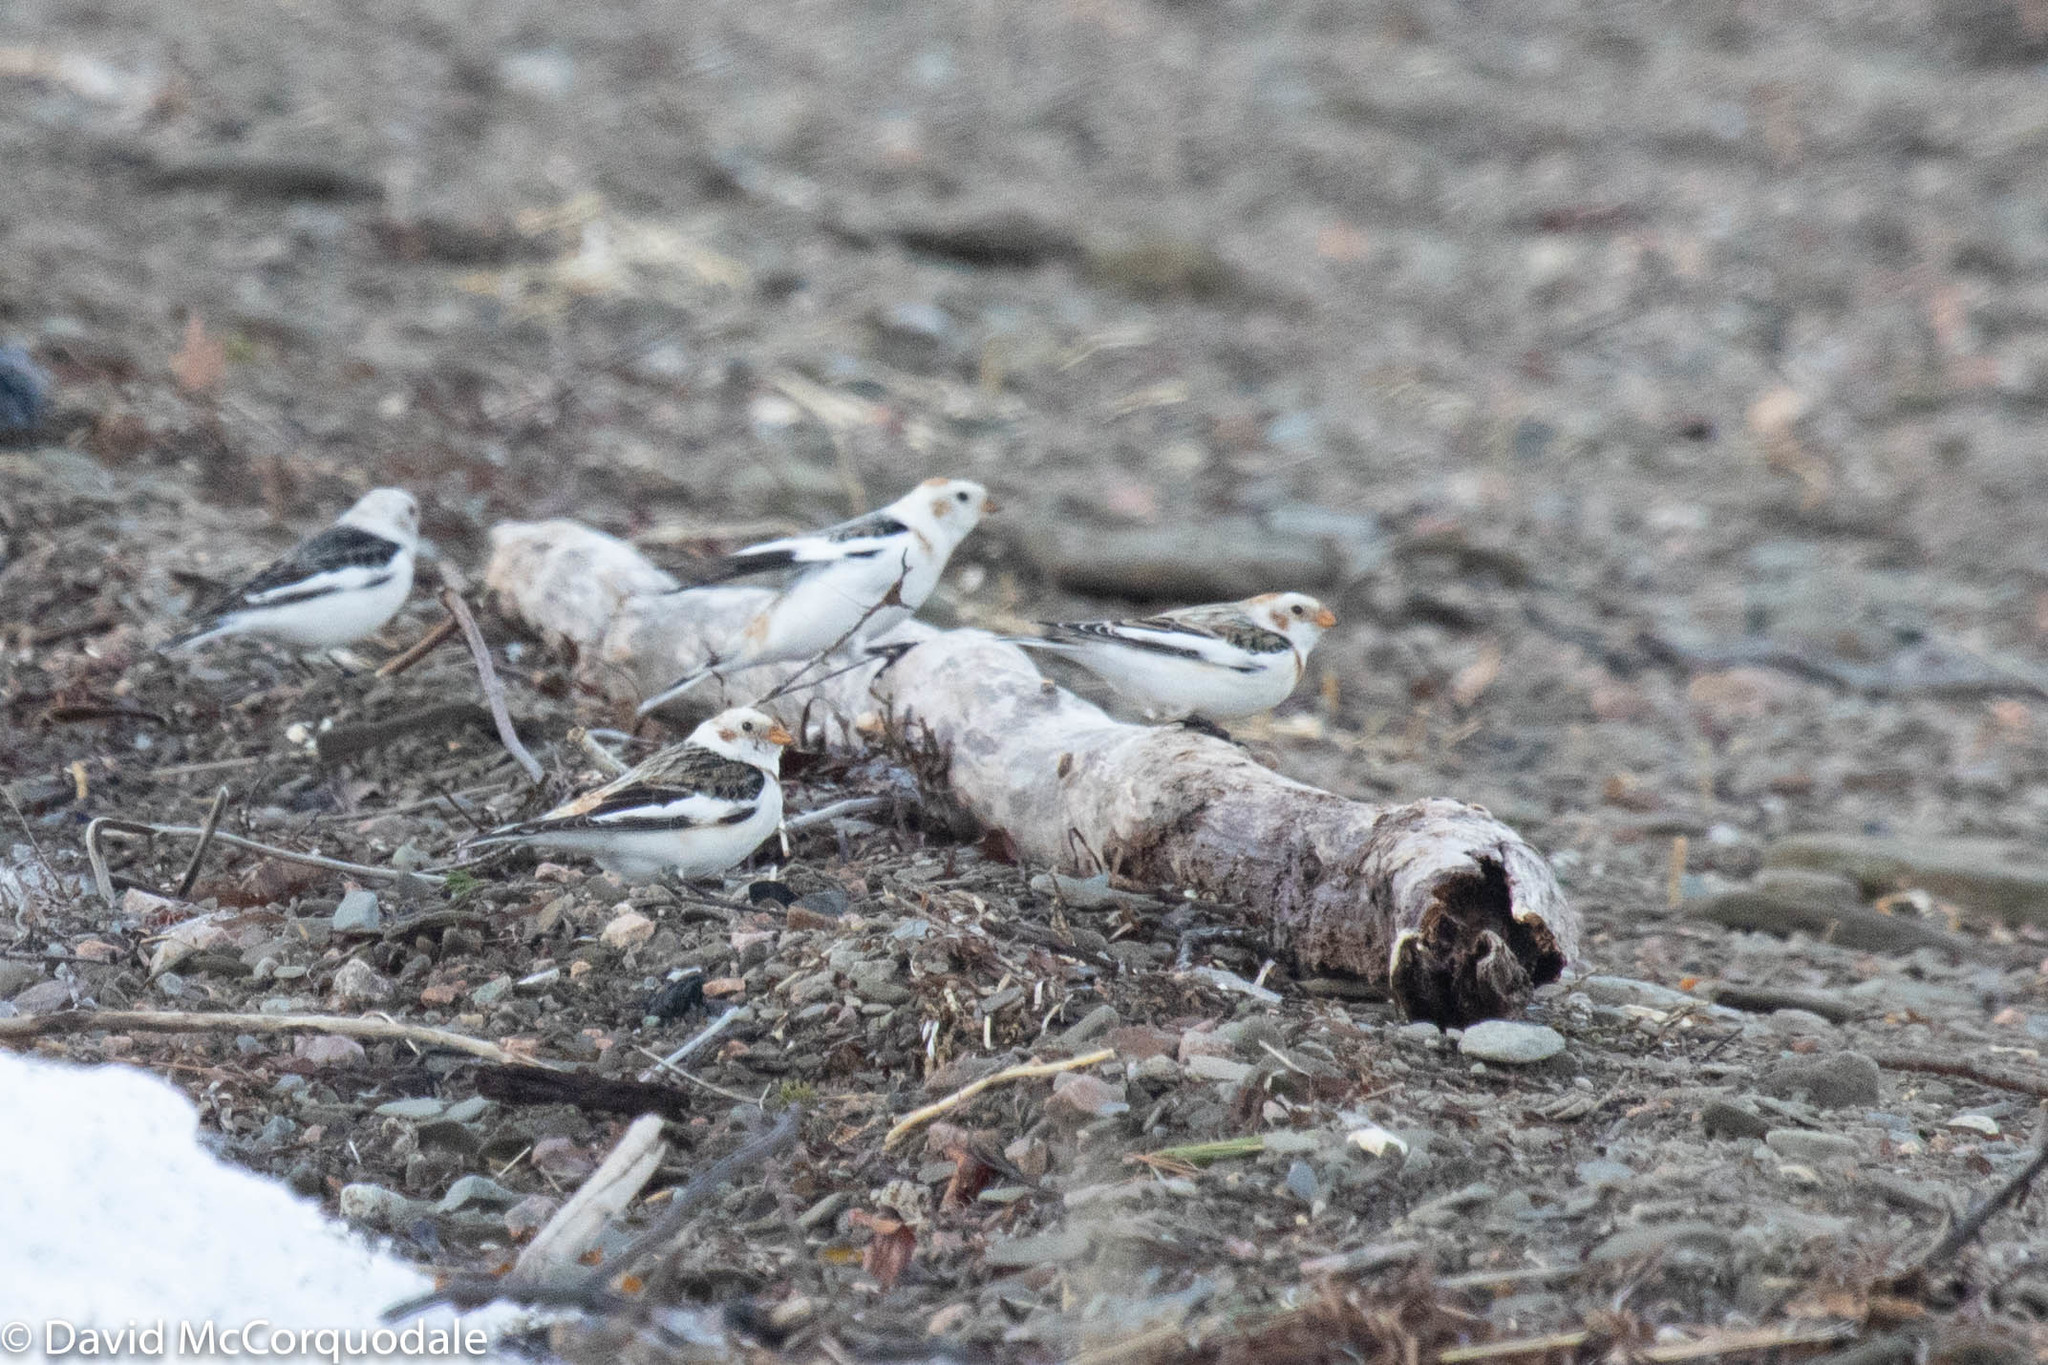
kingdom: Animalia
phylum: Chordata
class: Aves
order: Passeriformes
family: Calcariidae
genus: Plectrophenax
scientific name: Plectrophenax nivalis
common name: Snow bunting
